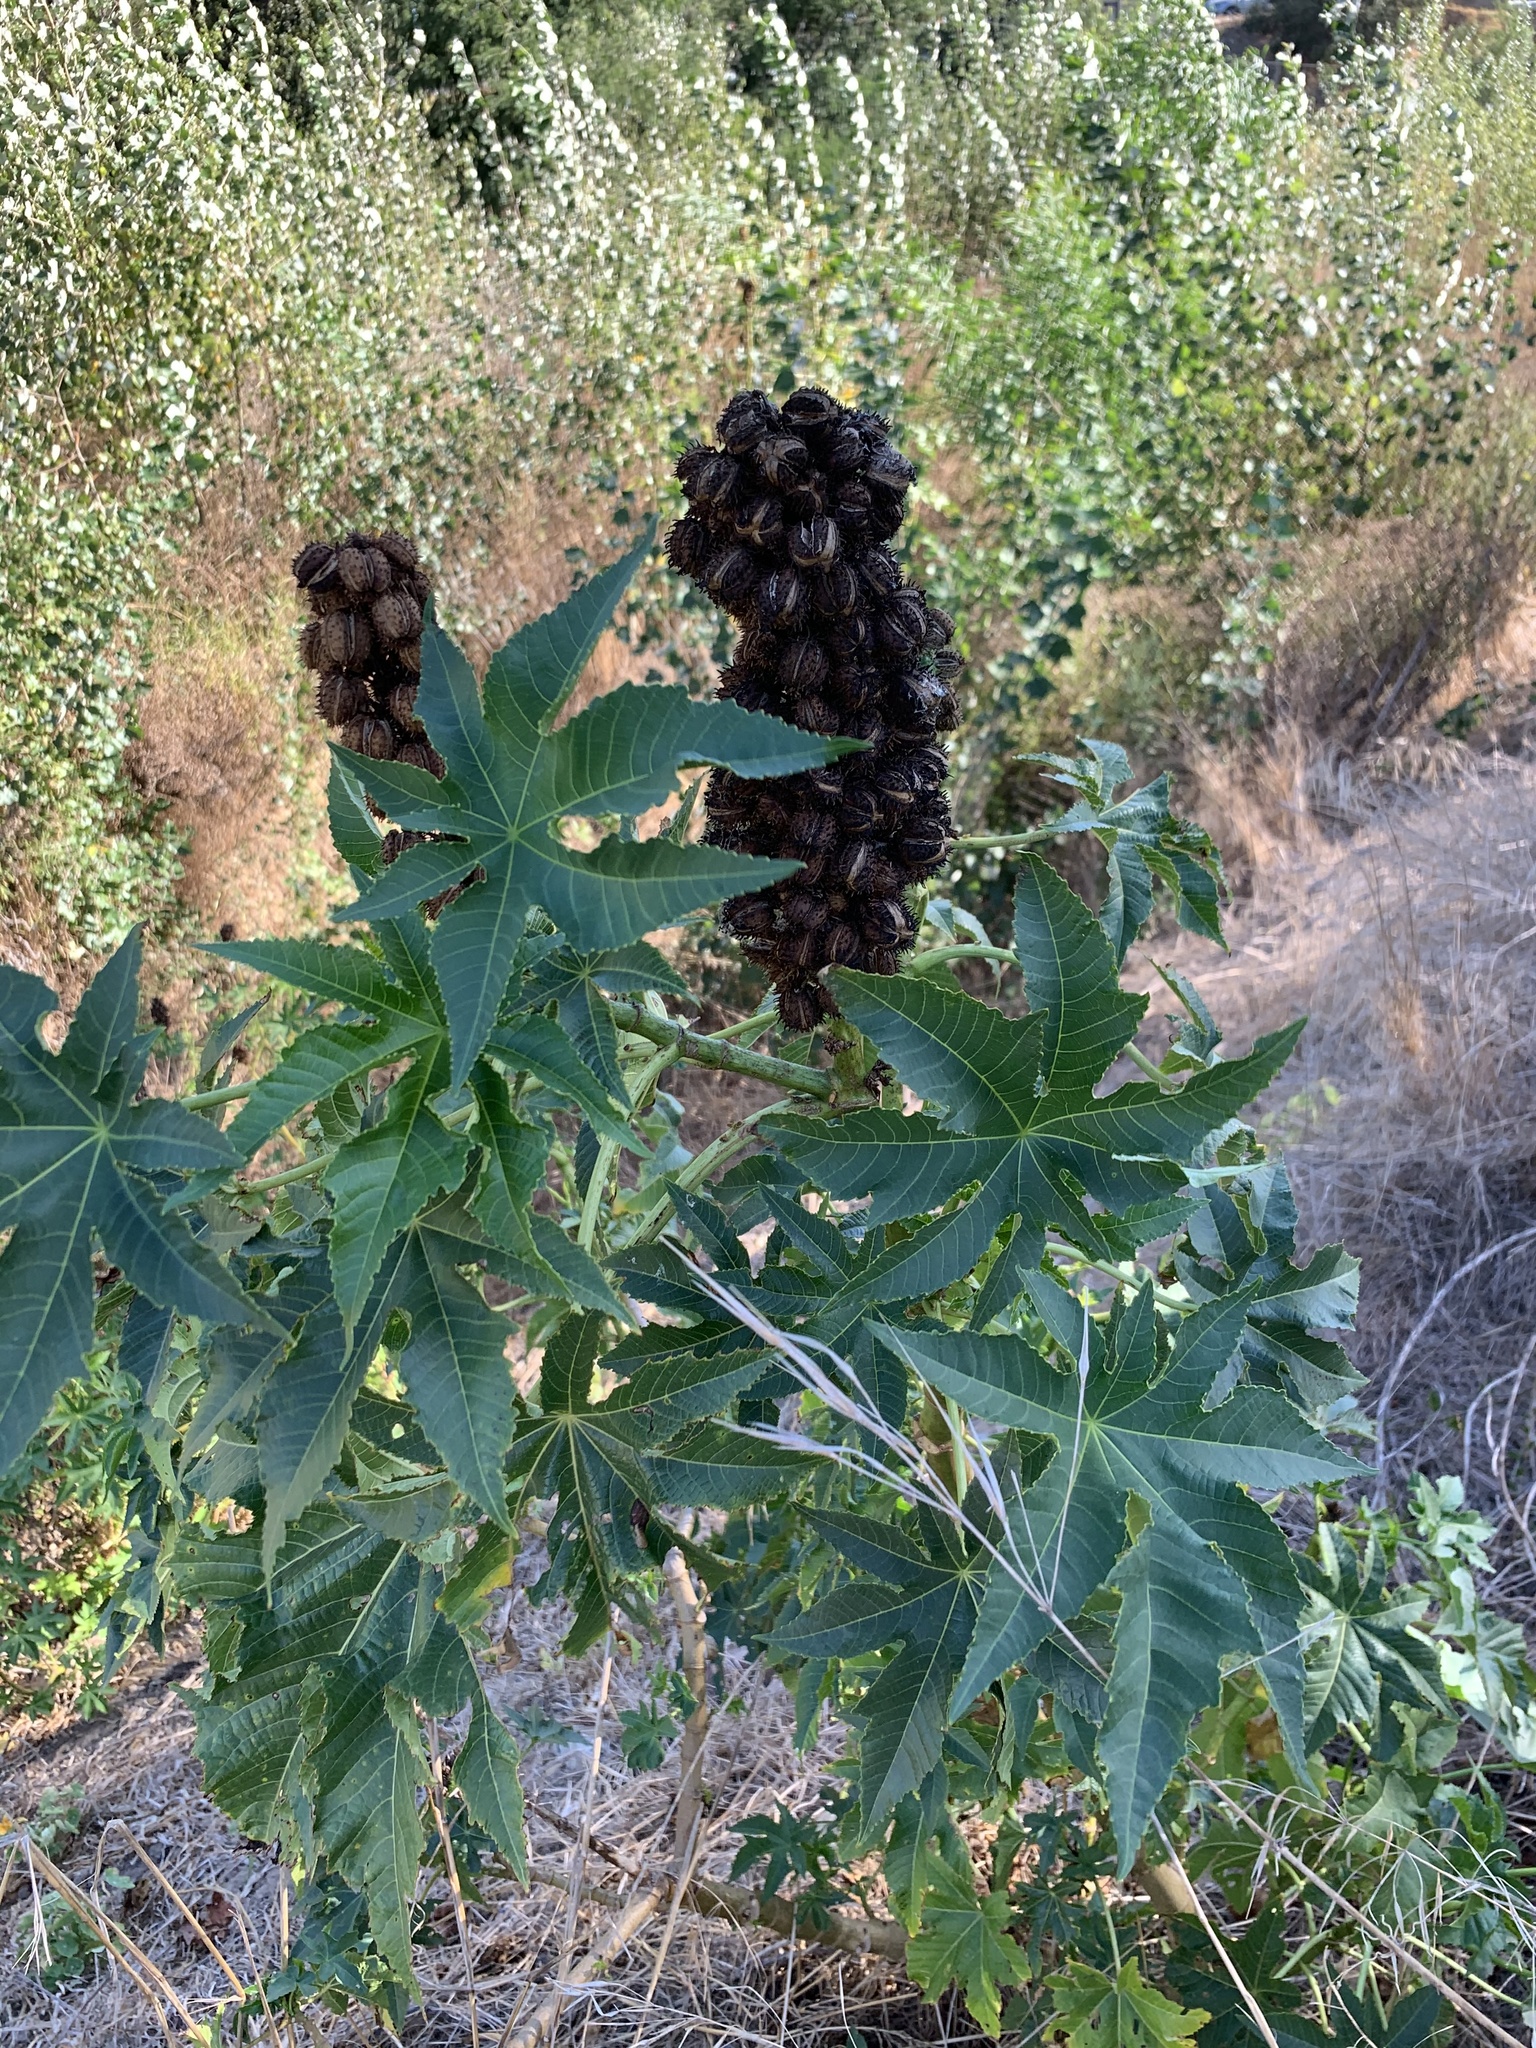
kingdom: Plantae
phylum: Tracheophyta
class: Magnoliopsida
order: Malpighiales
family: Euphorbiaceae
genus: Ricinus
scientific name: Ricinus communis
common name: Castor-oil-plant
